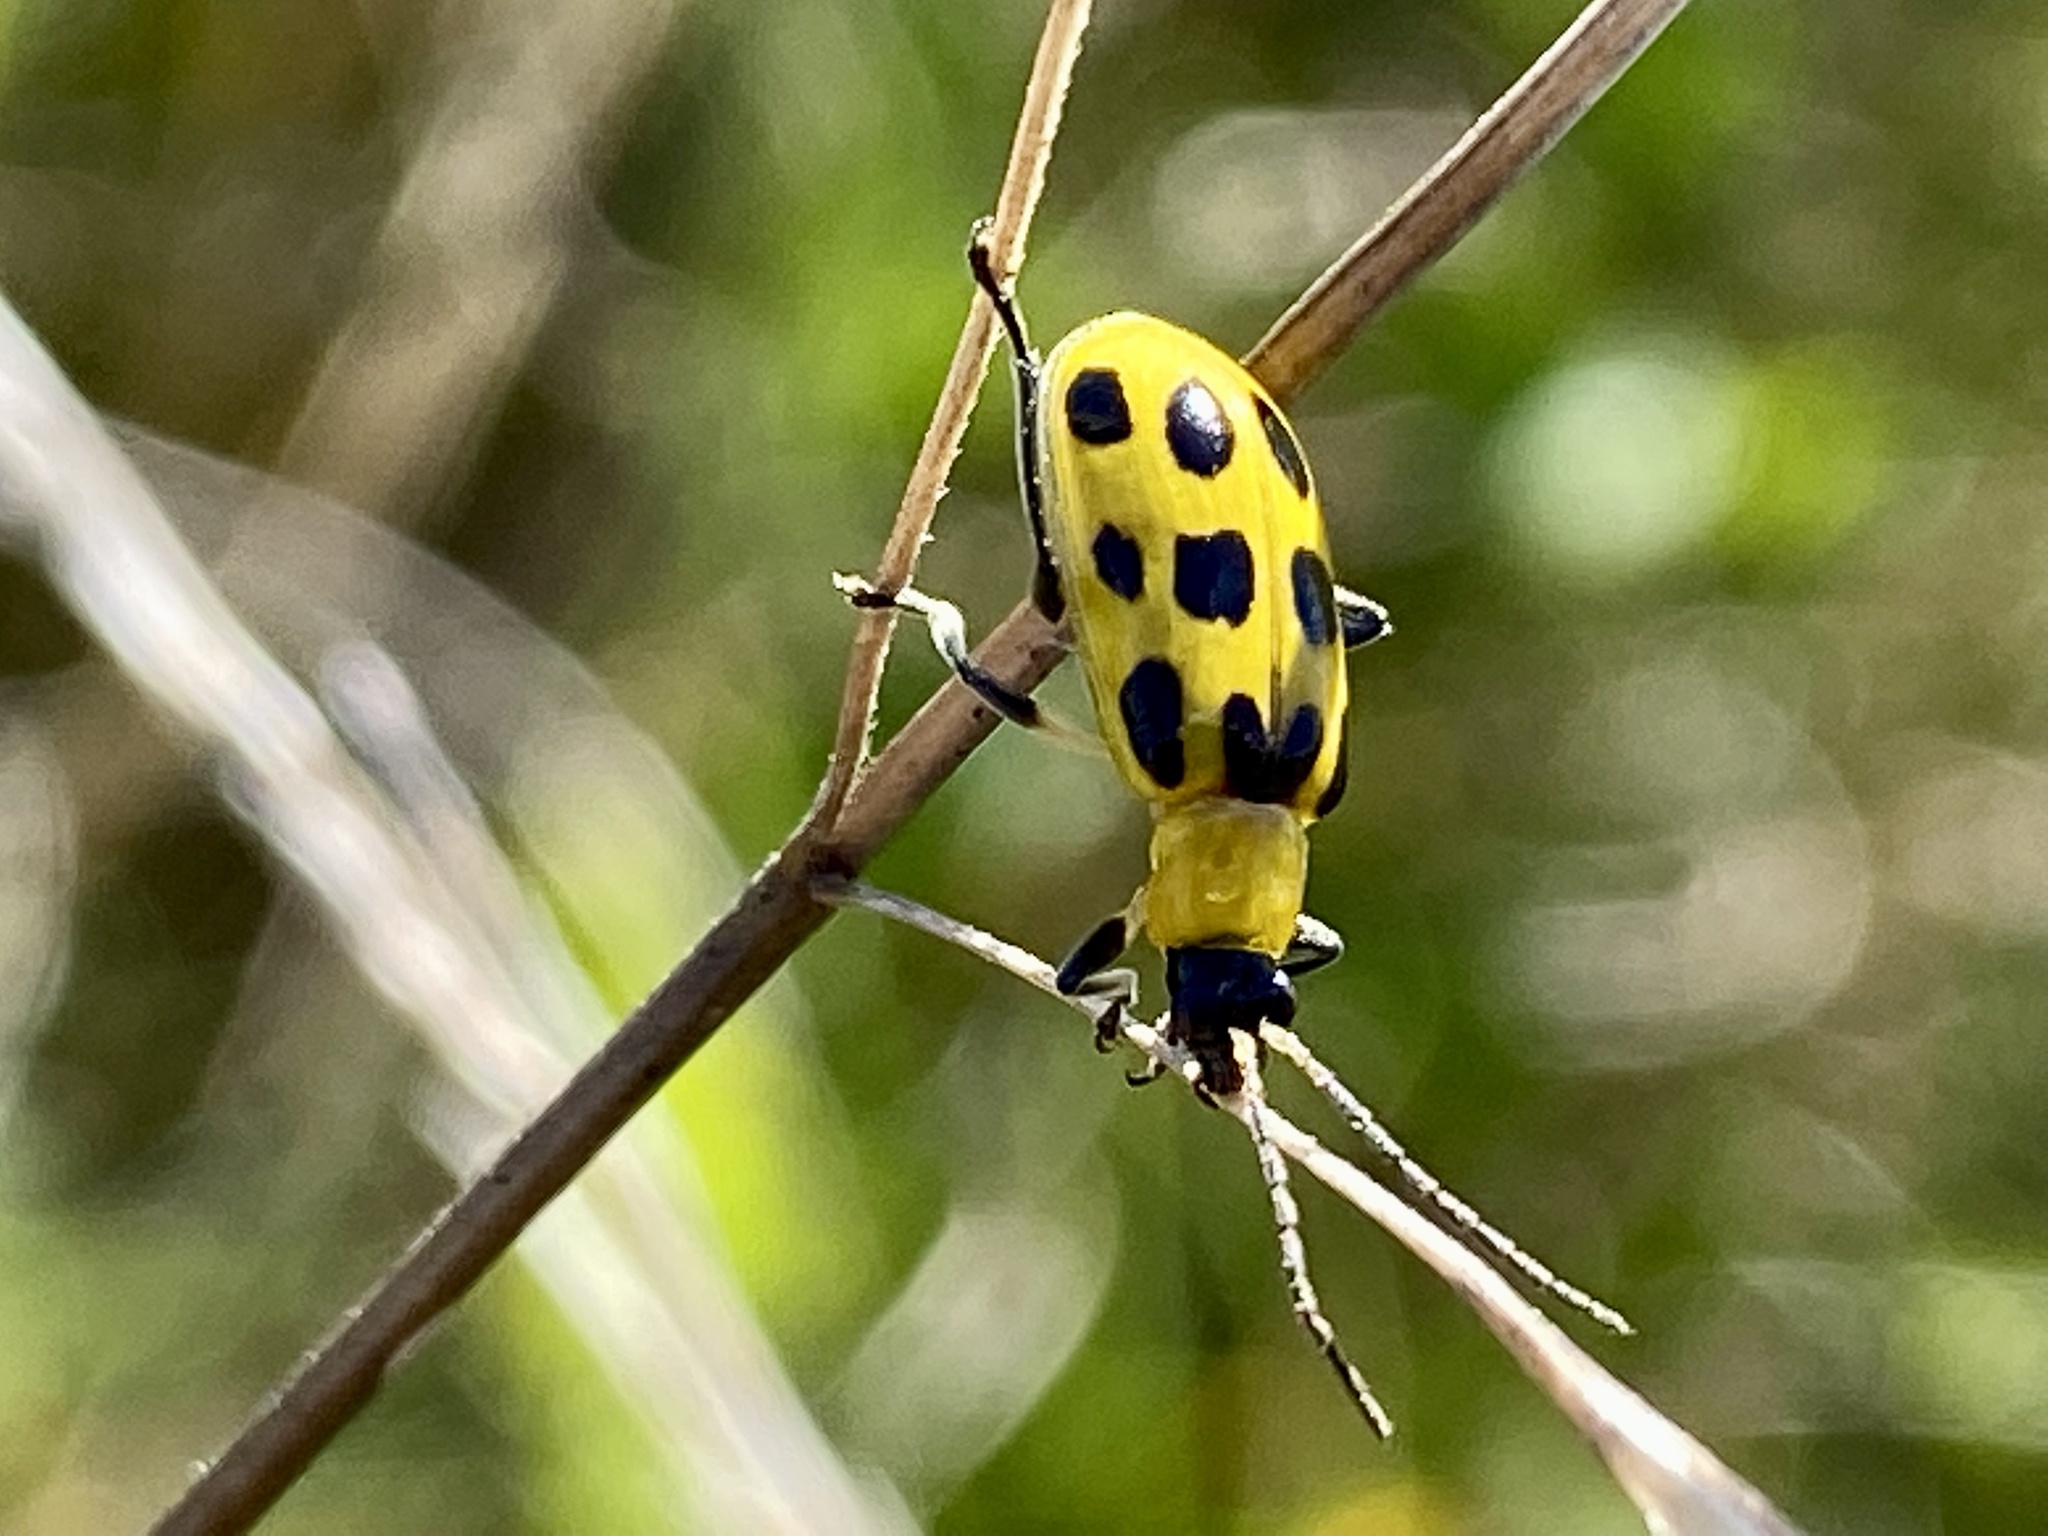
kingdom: Animalia
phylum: Arthropoda
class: Insecta
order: Coleoptera
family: Chrysomelidae
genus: Diabrotica
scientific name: Diabrotica undecimpunctata
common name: Spotted cucumber beetle
